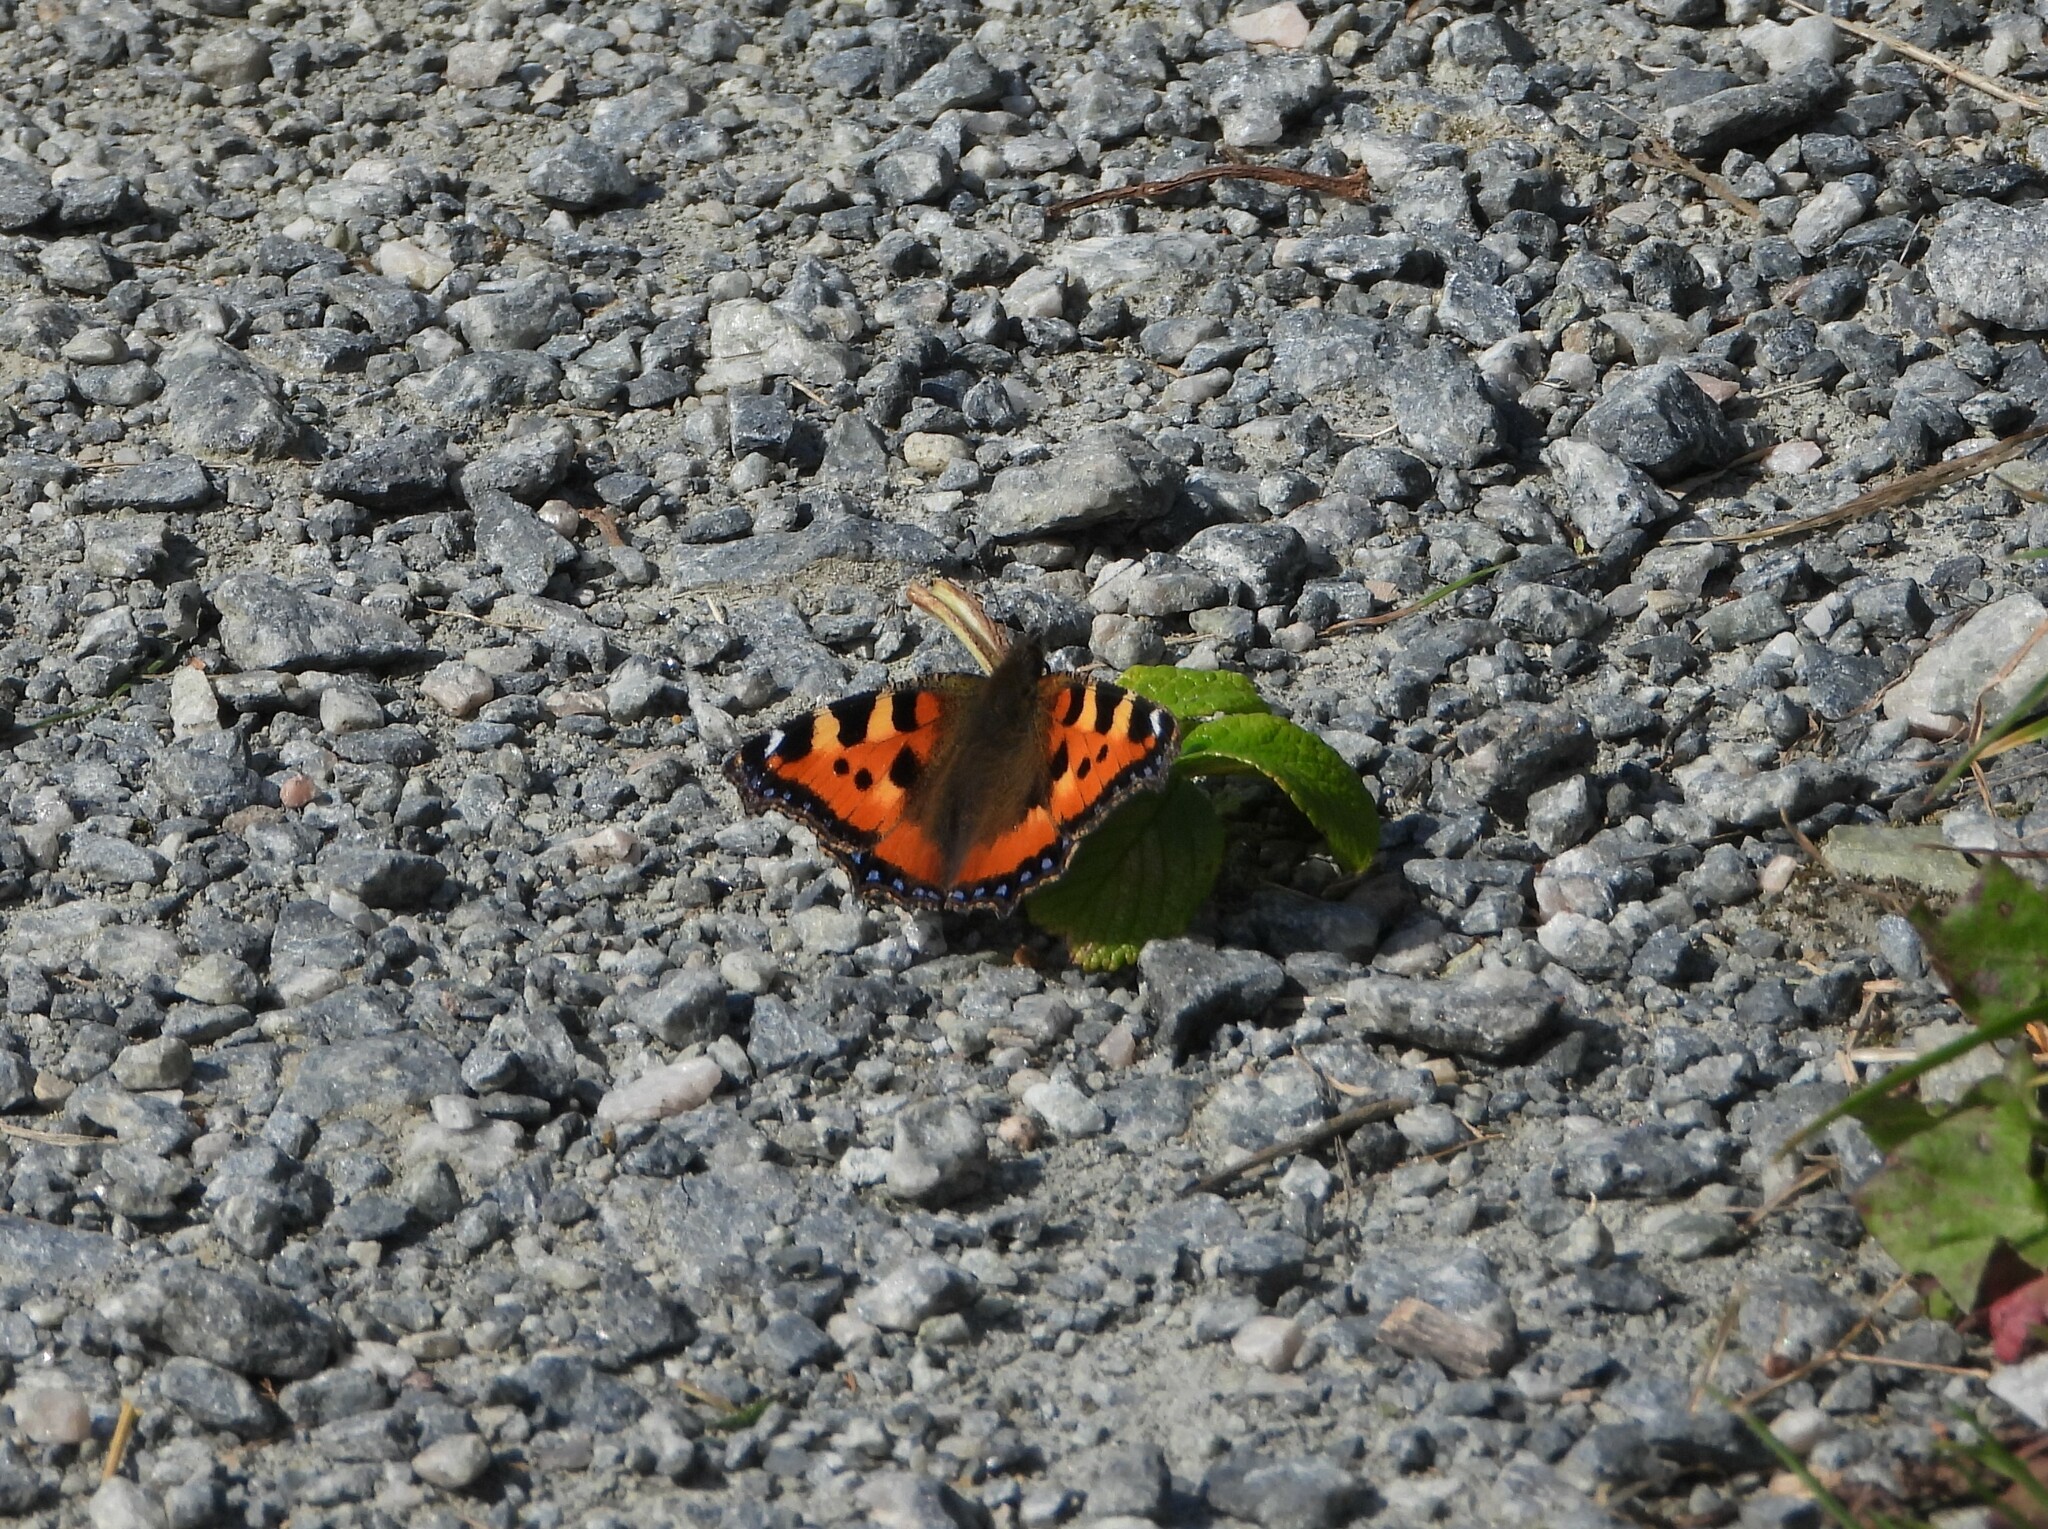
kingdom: Animalia
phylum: Arthropoda
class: Insecta
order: Lepidoptera
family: Nymphalidae
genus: Aglais
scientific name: Aglais urticae
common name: Small tortoiseshell
